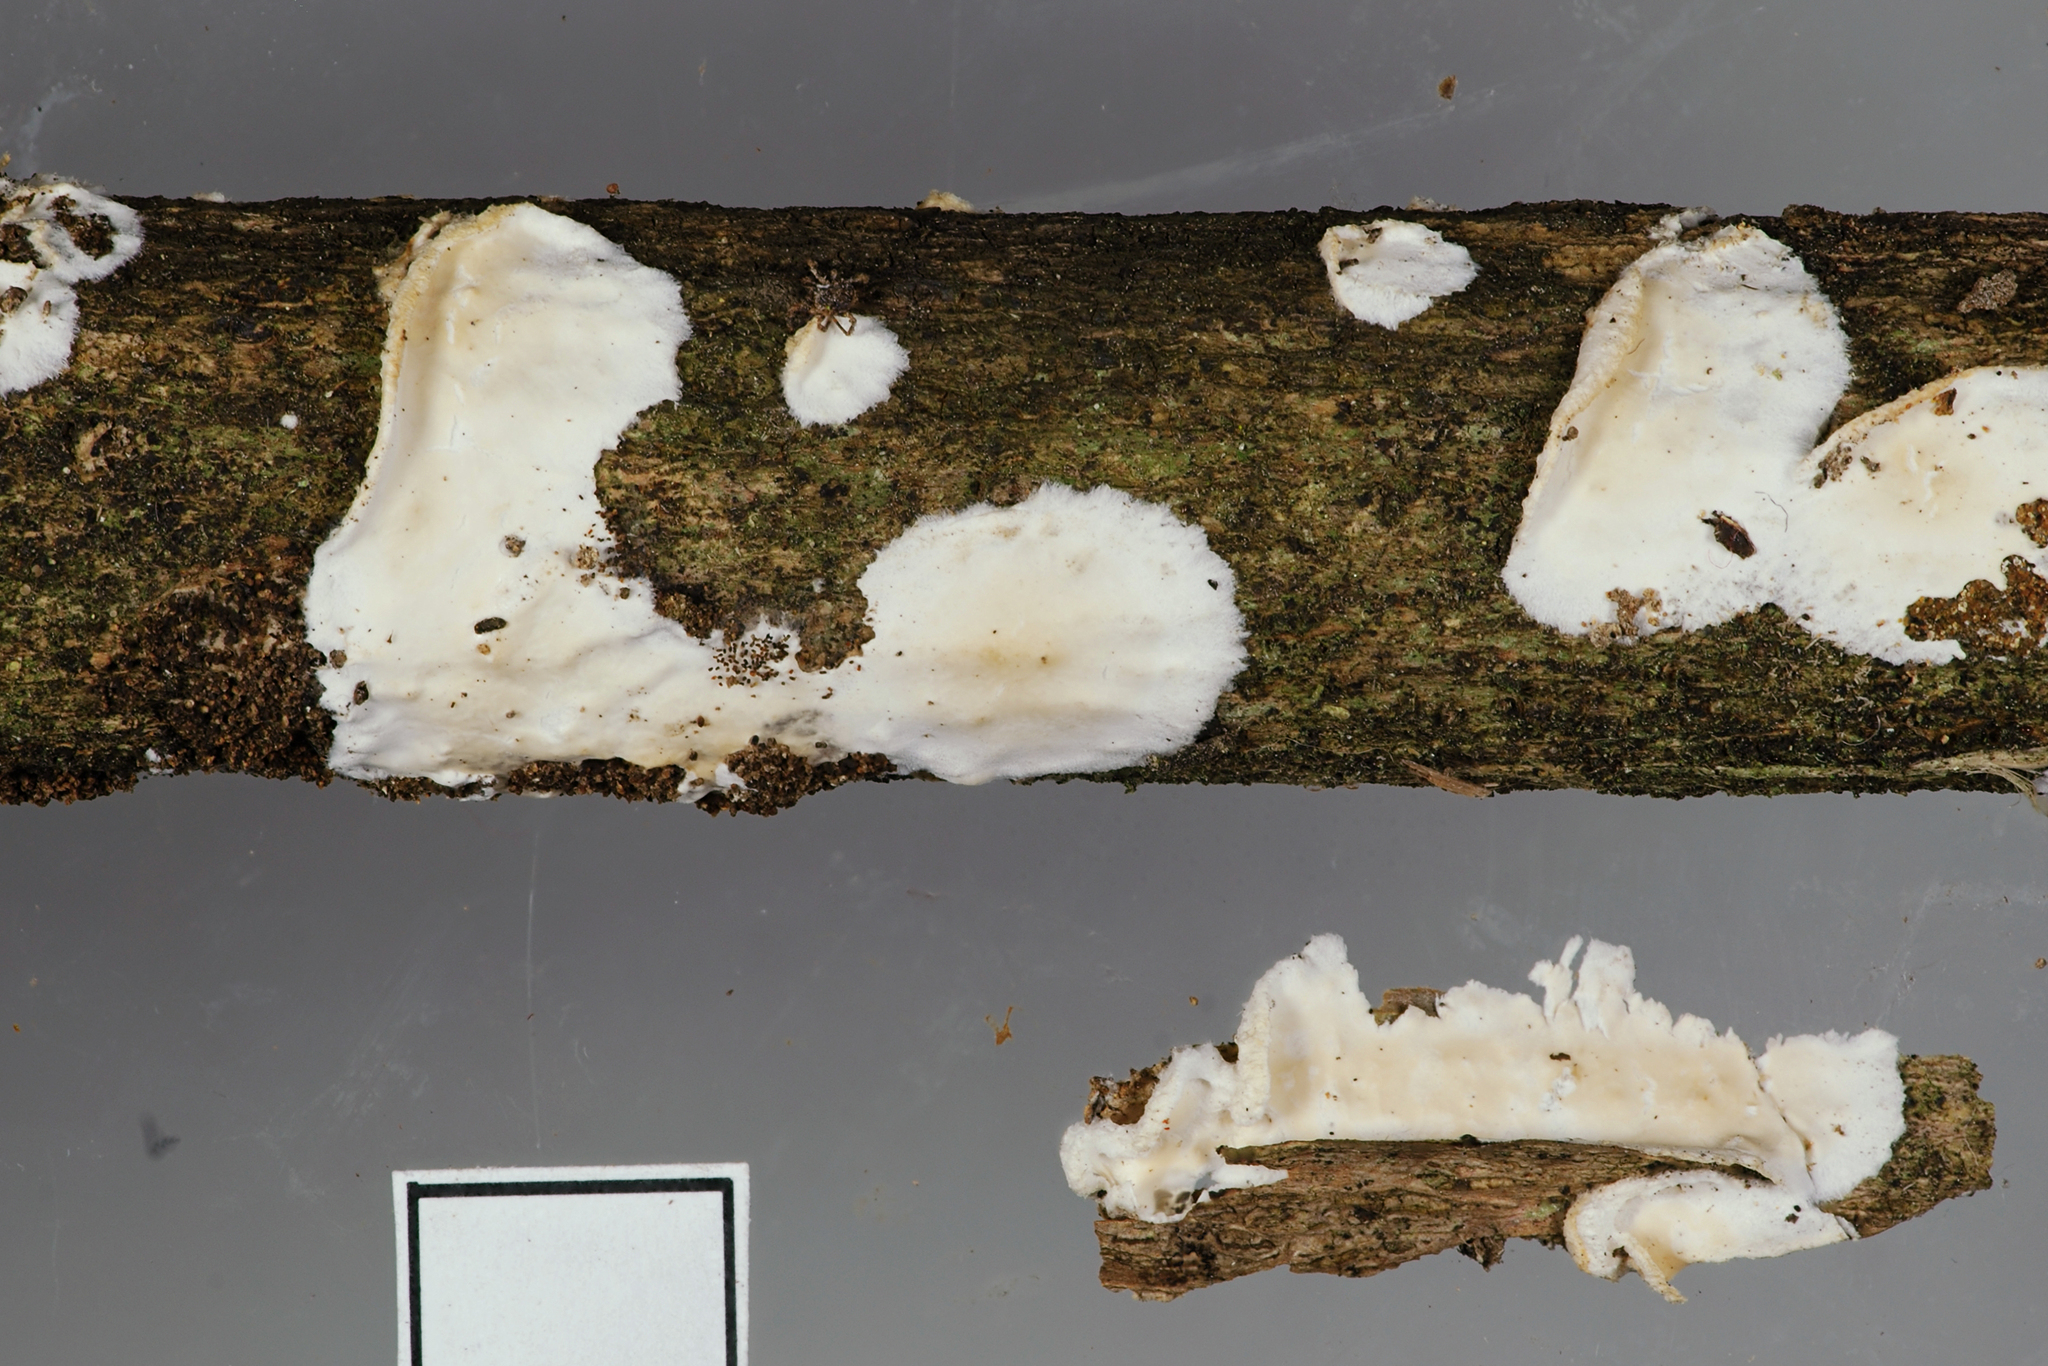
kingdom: Fungi
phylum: Basidiomycota
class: Agaricomycetes
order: Polyporales
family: Irpicaceae
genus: Byssomerulius
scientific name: Byssomerulius corium
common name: Netted crust
